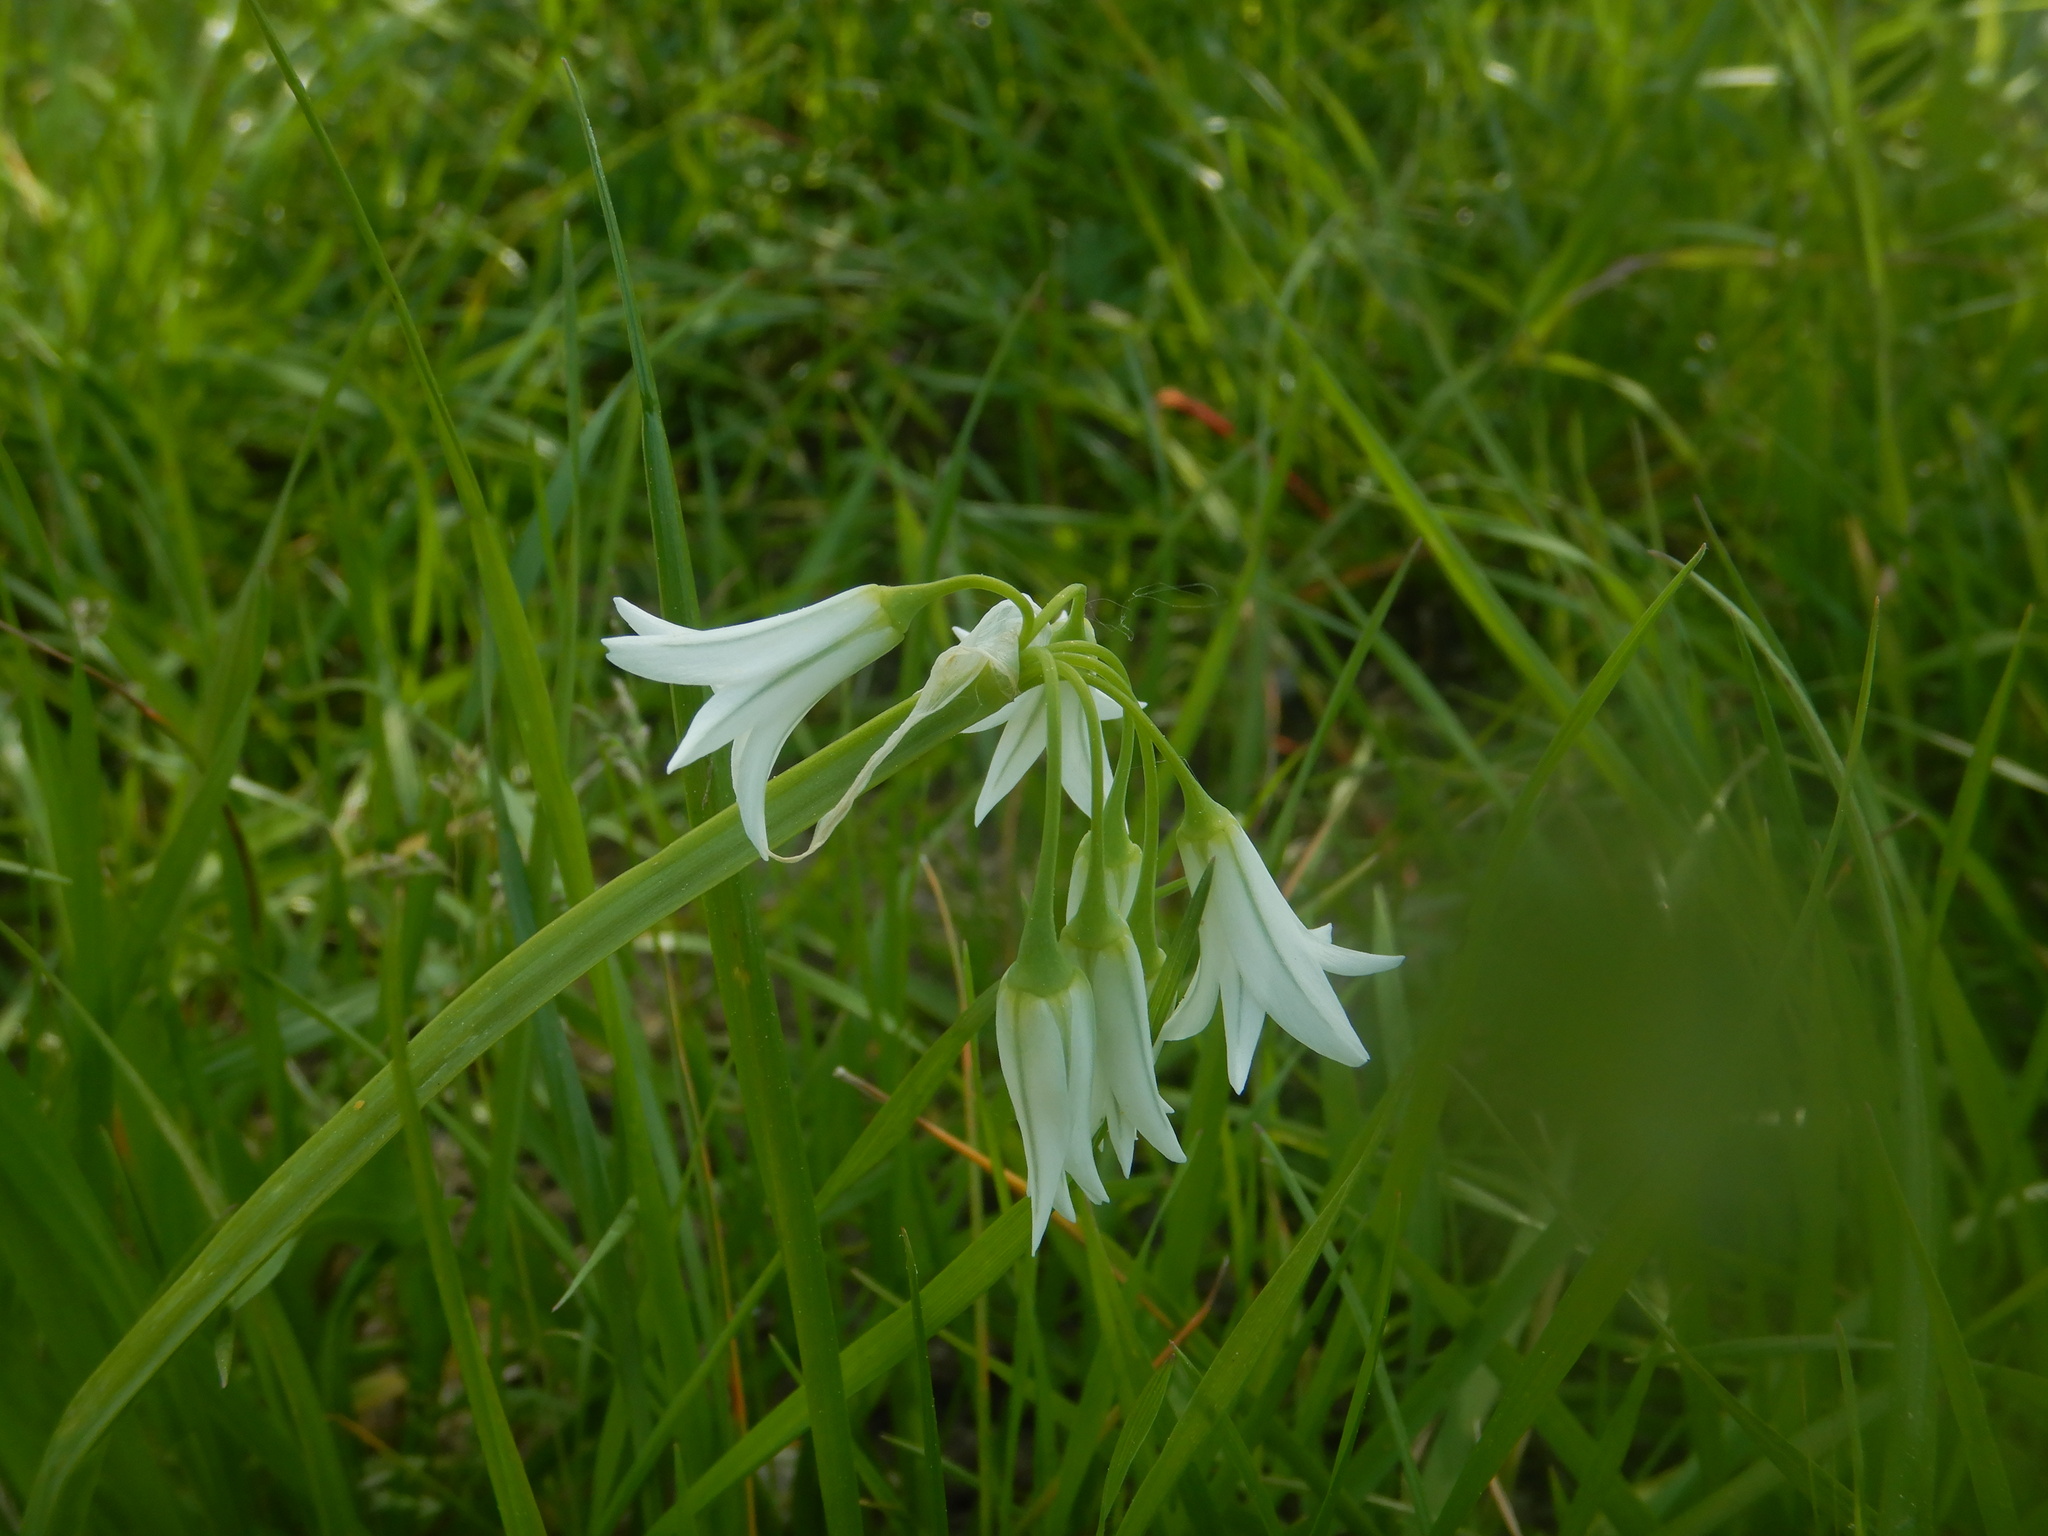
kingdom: Plantae
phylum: Tracheophyta
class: Liliopsida
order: Asparagales
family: Amaryllidaceae
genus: Allium
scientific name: Allium triquetrum
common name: Three-cornered garlic
